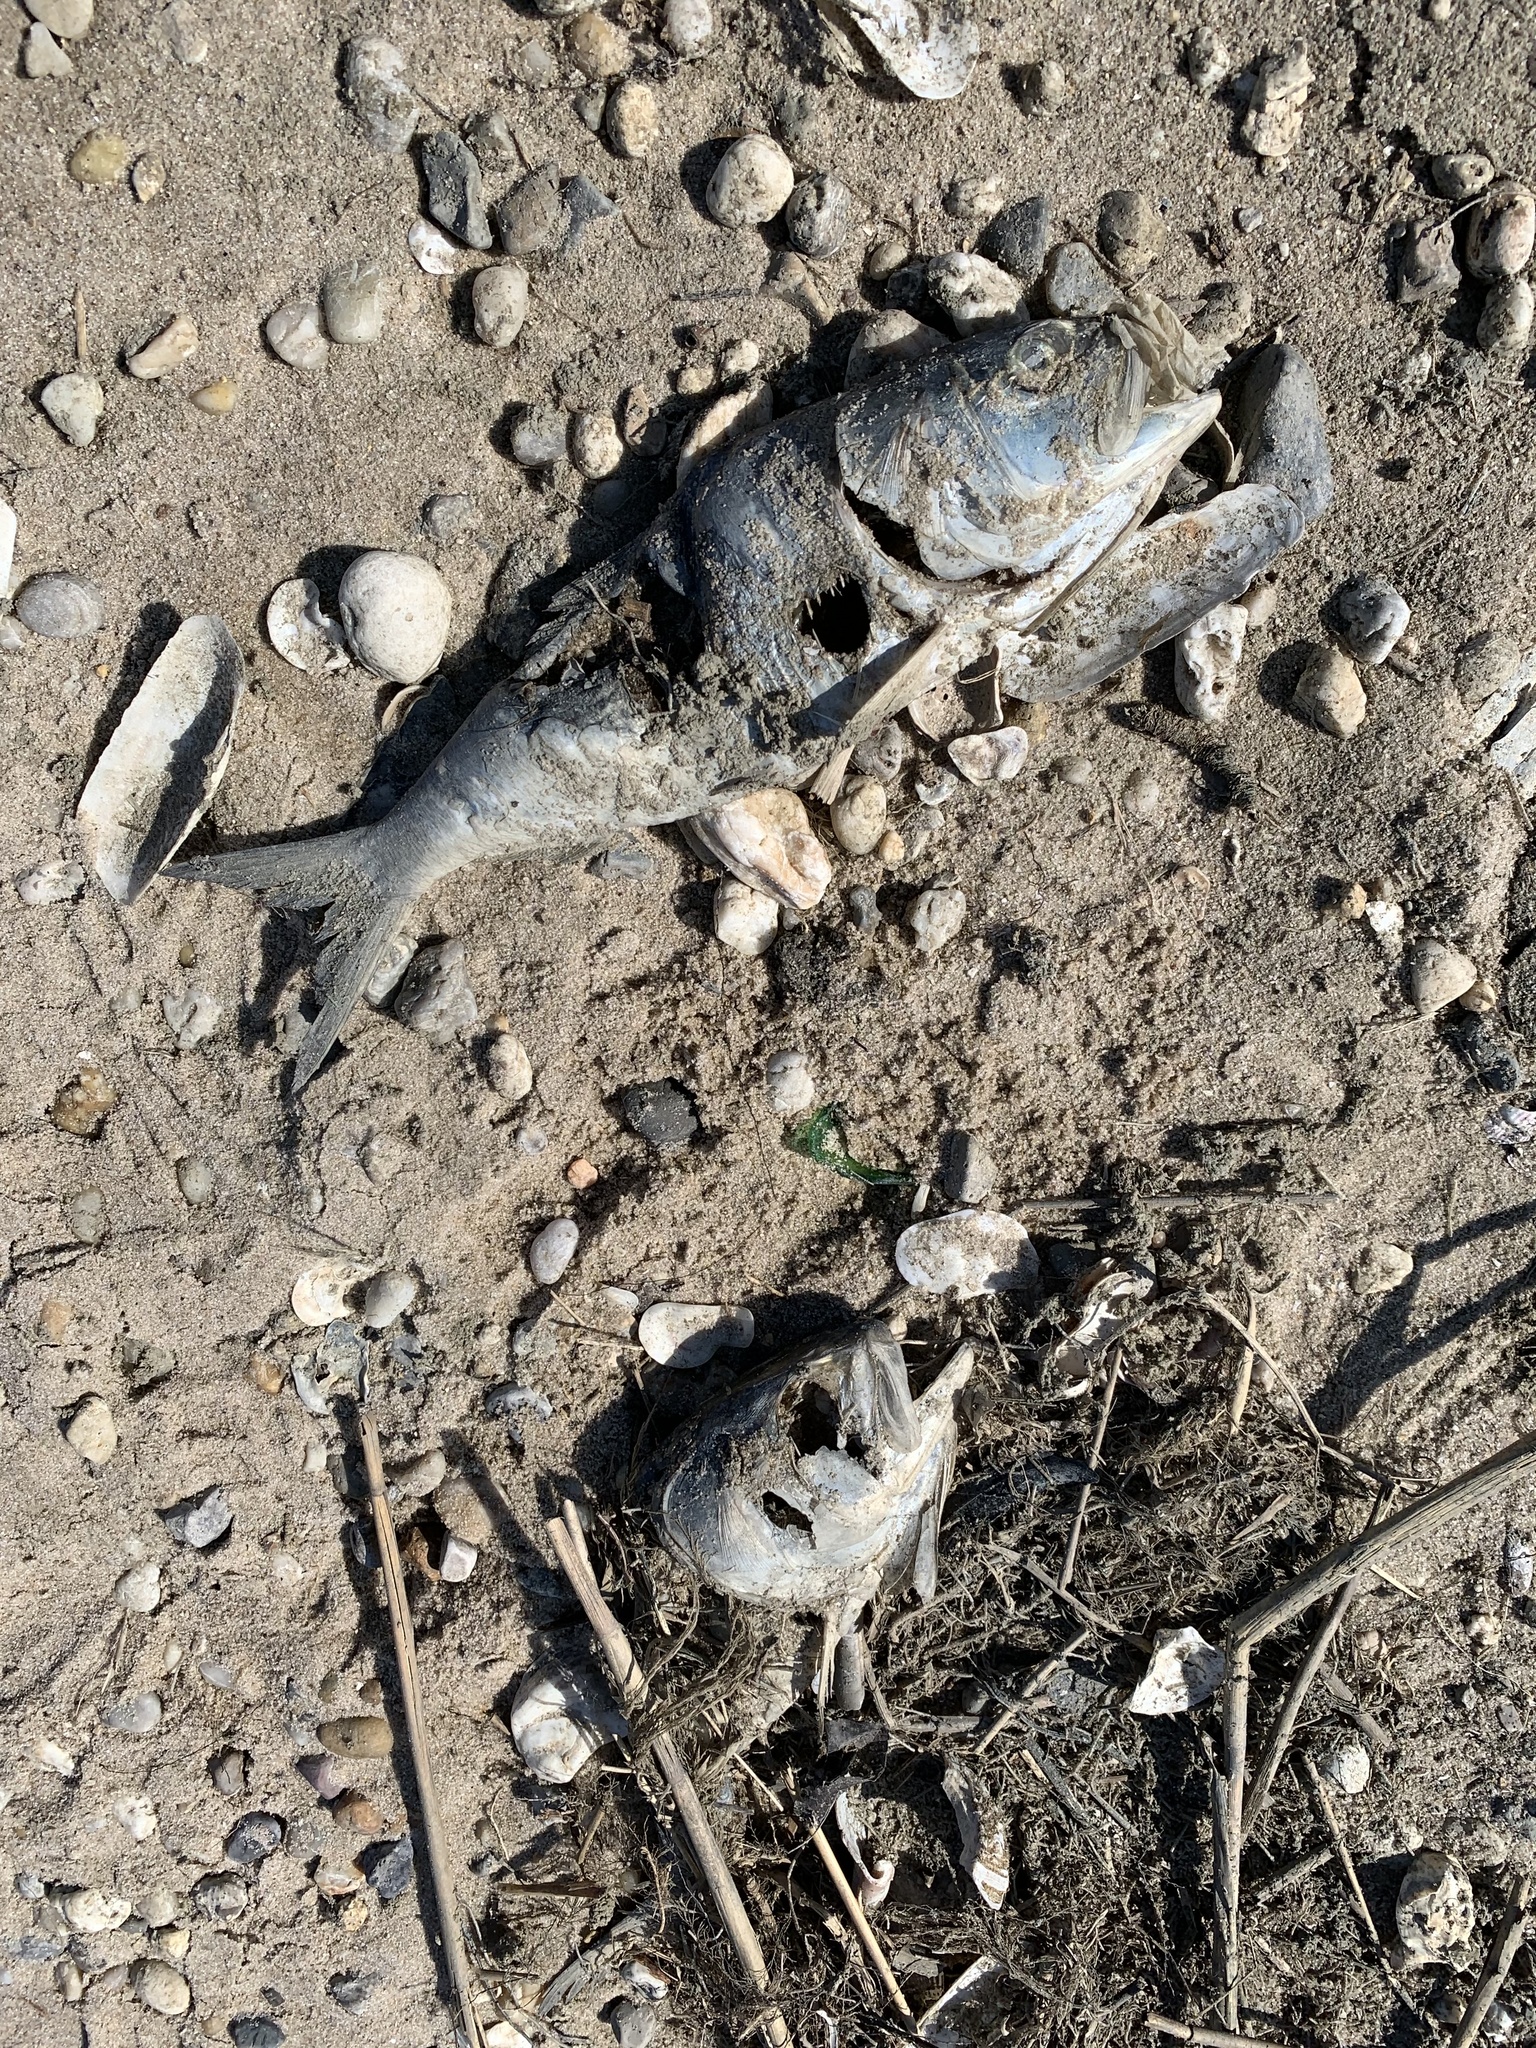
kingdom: Animalia
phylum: Chordata
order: Clupeiformes
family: Clupeidae
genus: Brevoortia
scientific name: Brevoortia tyrannus
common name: Atlantic menhaden
